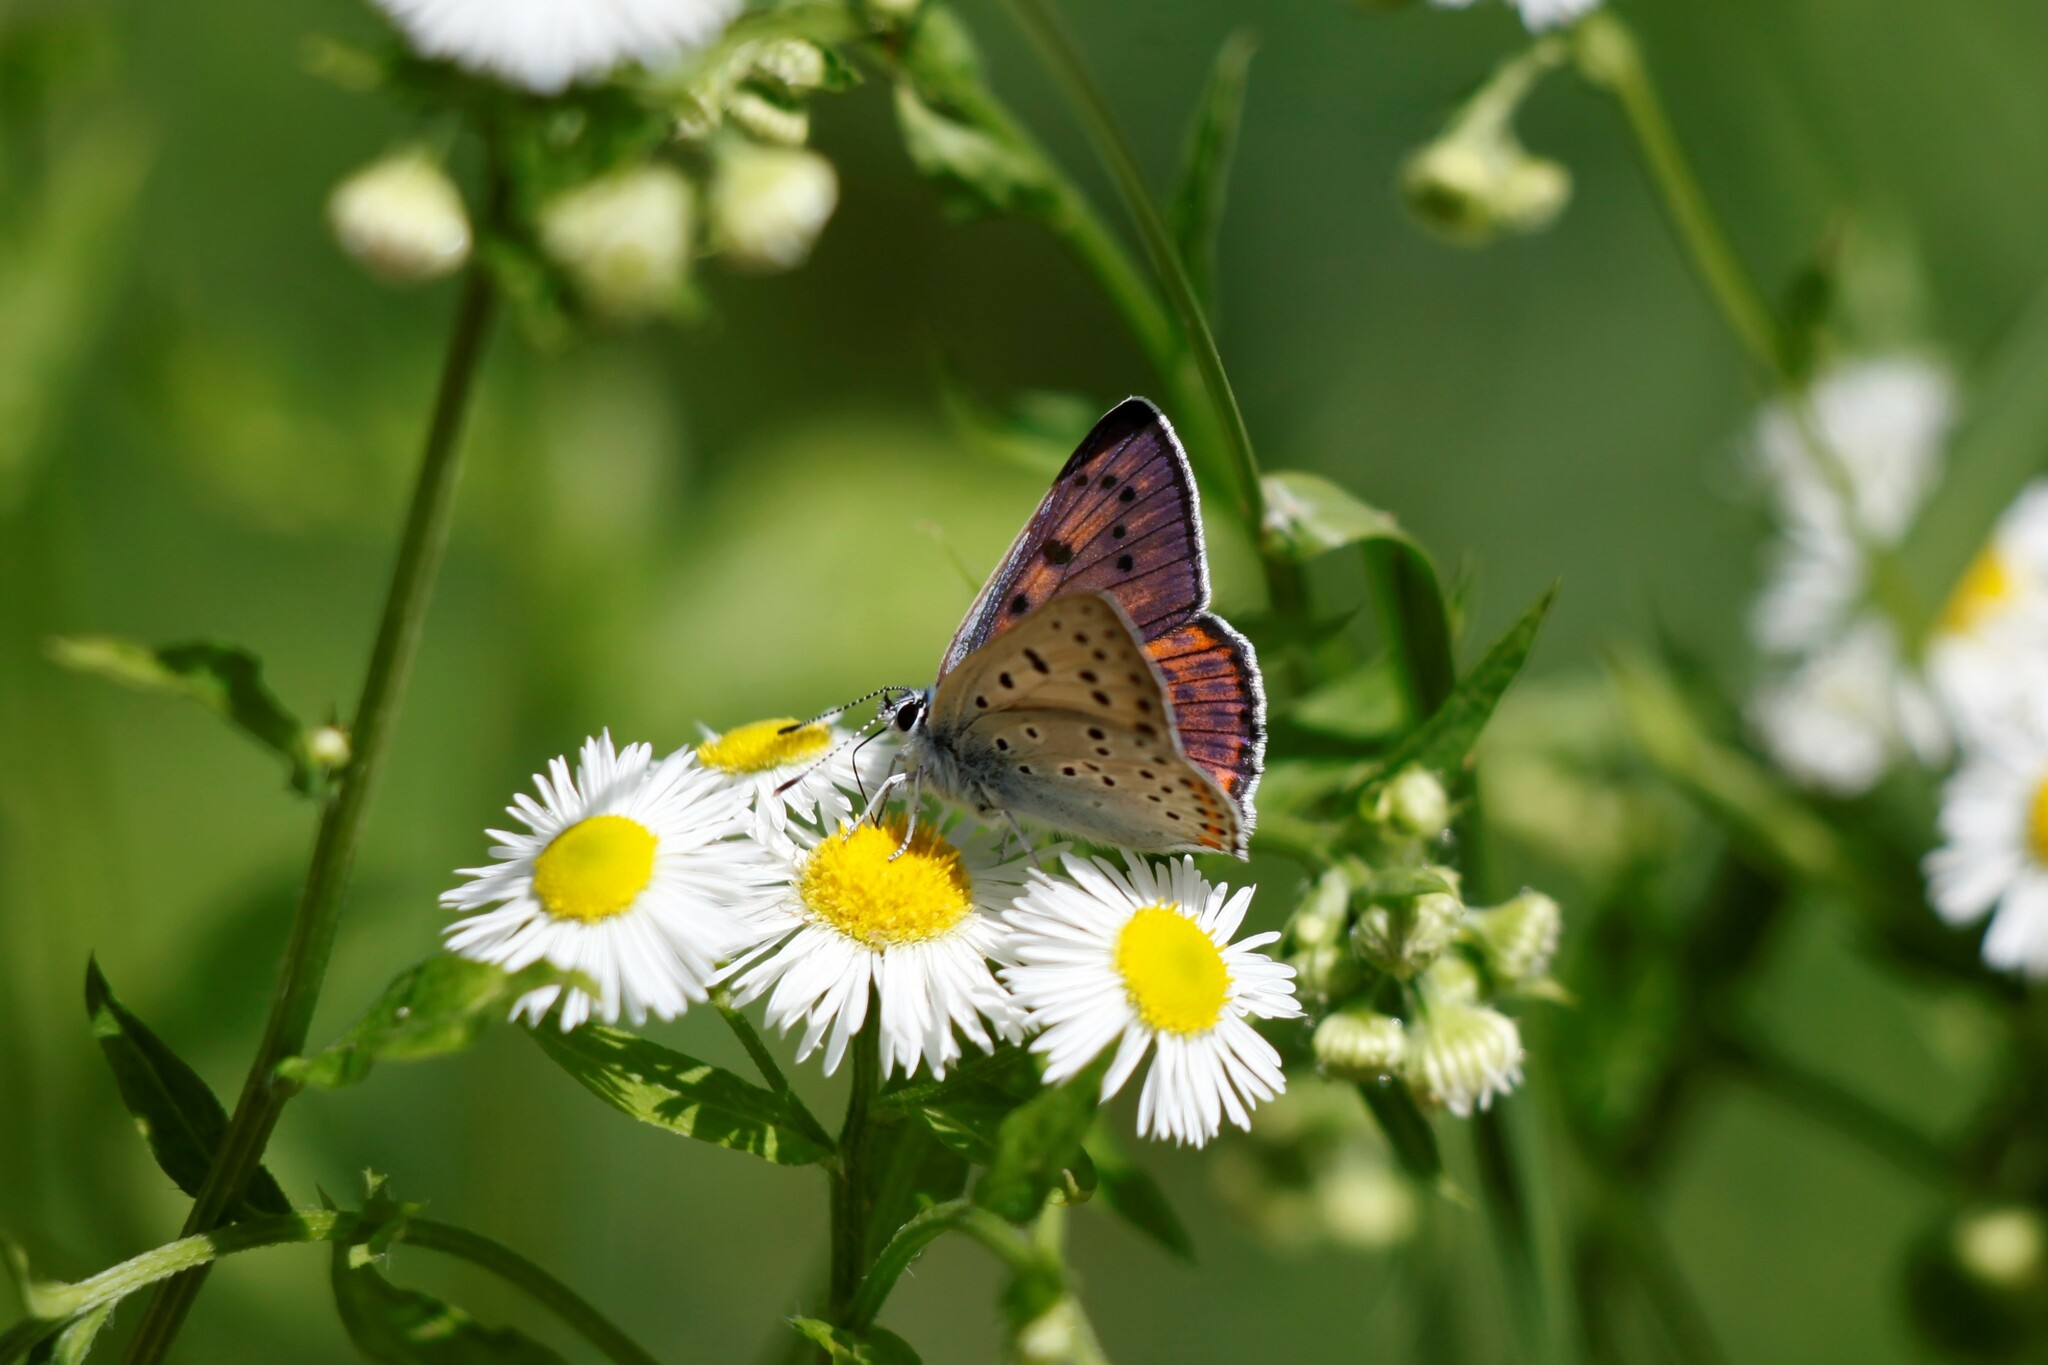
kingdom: Animalia
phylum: Arthropoda
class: Insecta
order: Lepidoptera
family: Lycaenidae
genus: Lycaena
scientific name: Lycaena alciphron
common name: Purple-shot copper
